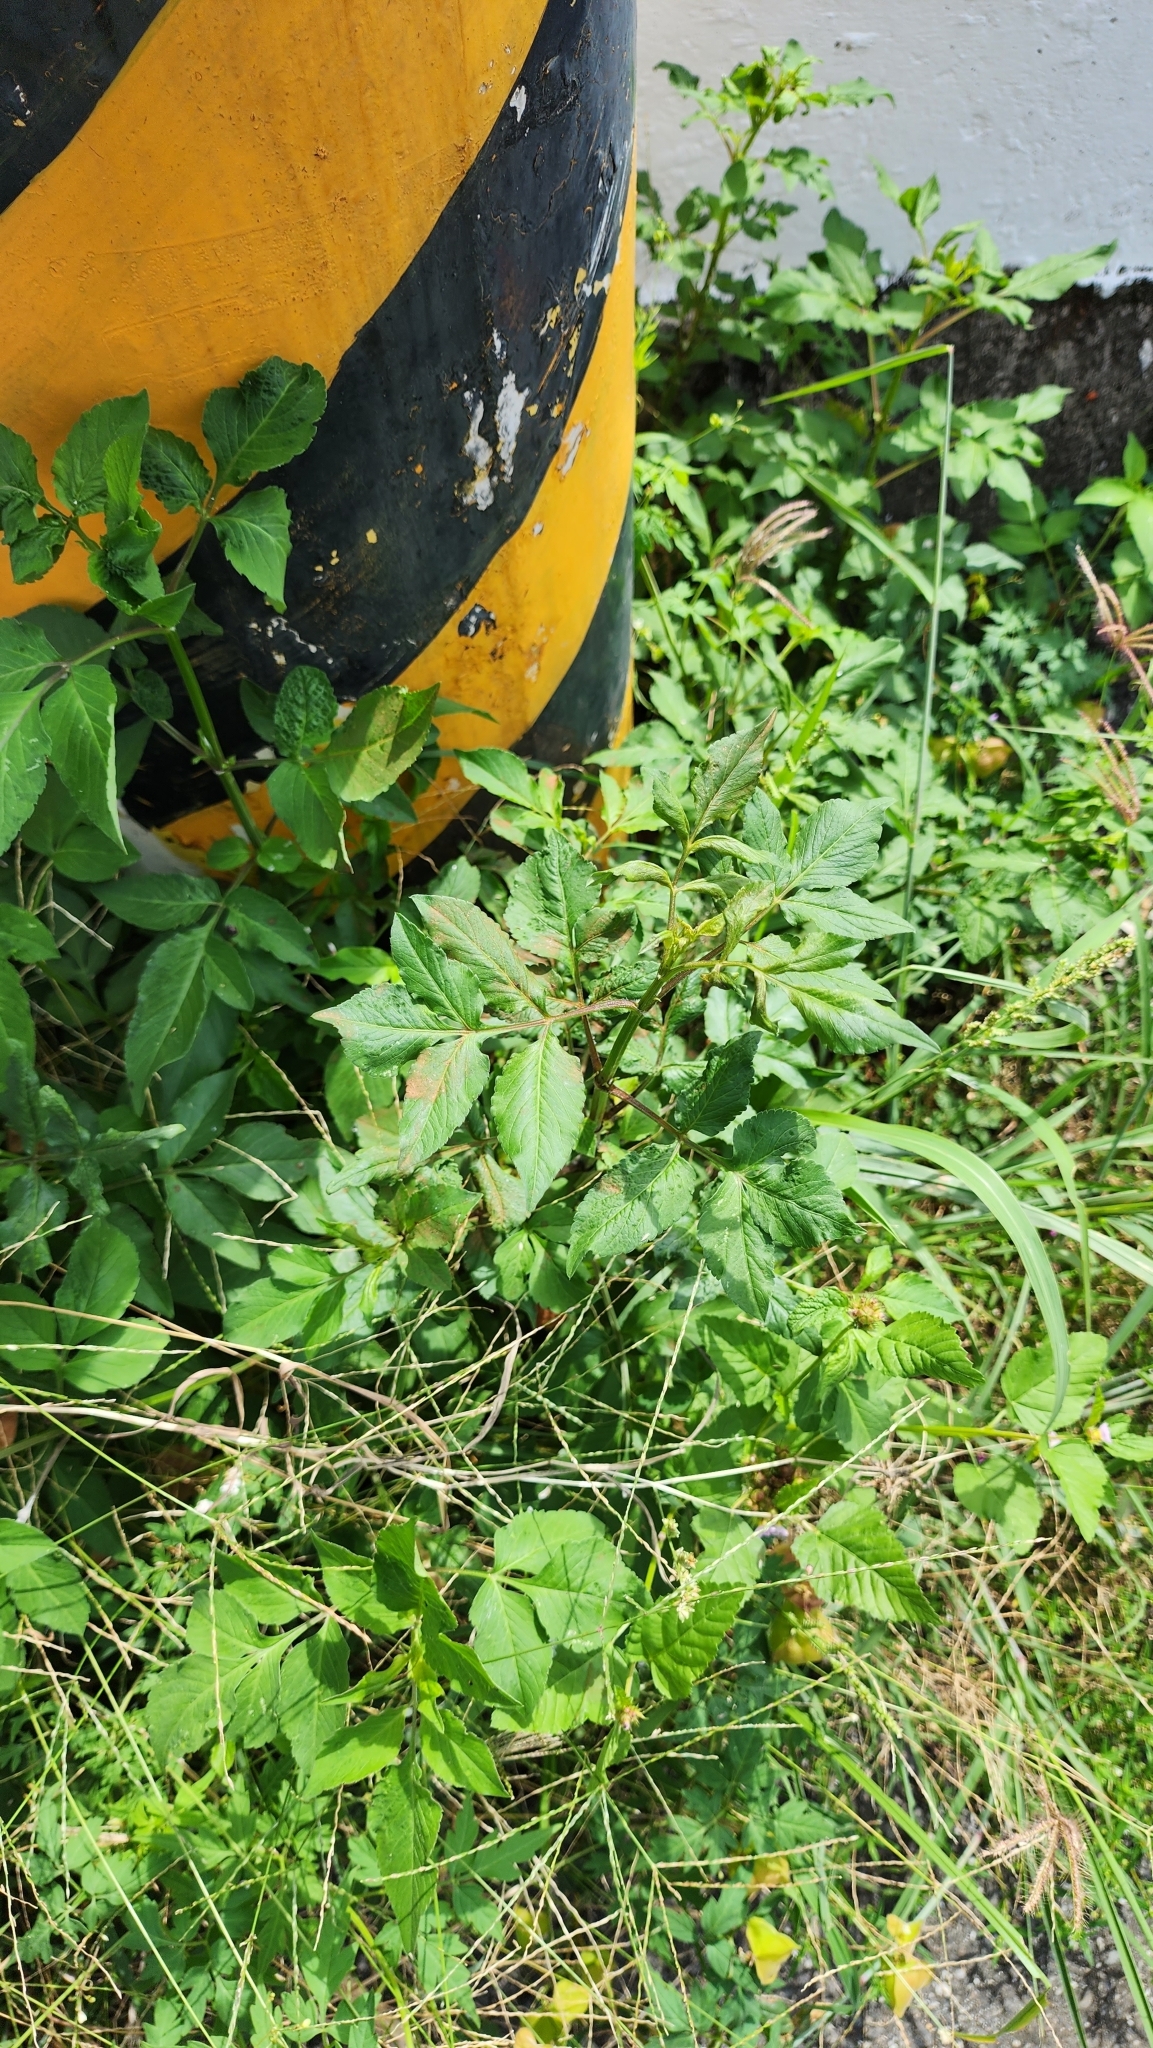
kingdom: Plantae
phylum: Tracheophyta
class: Magnoliopsida
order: Asterales
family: Asteraceae
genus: Bidens
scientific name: Bidens alba
